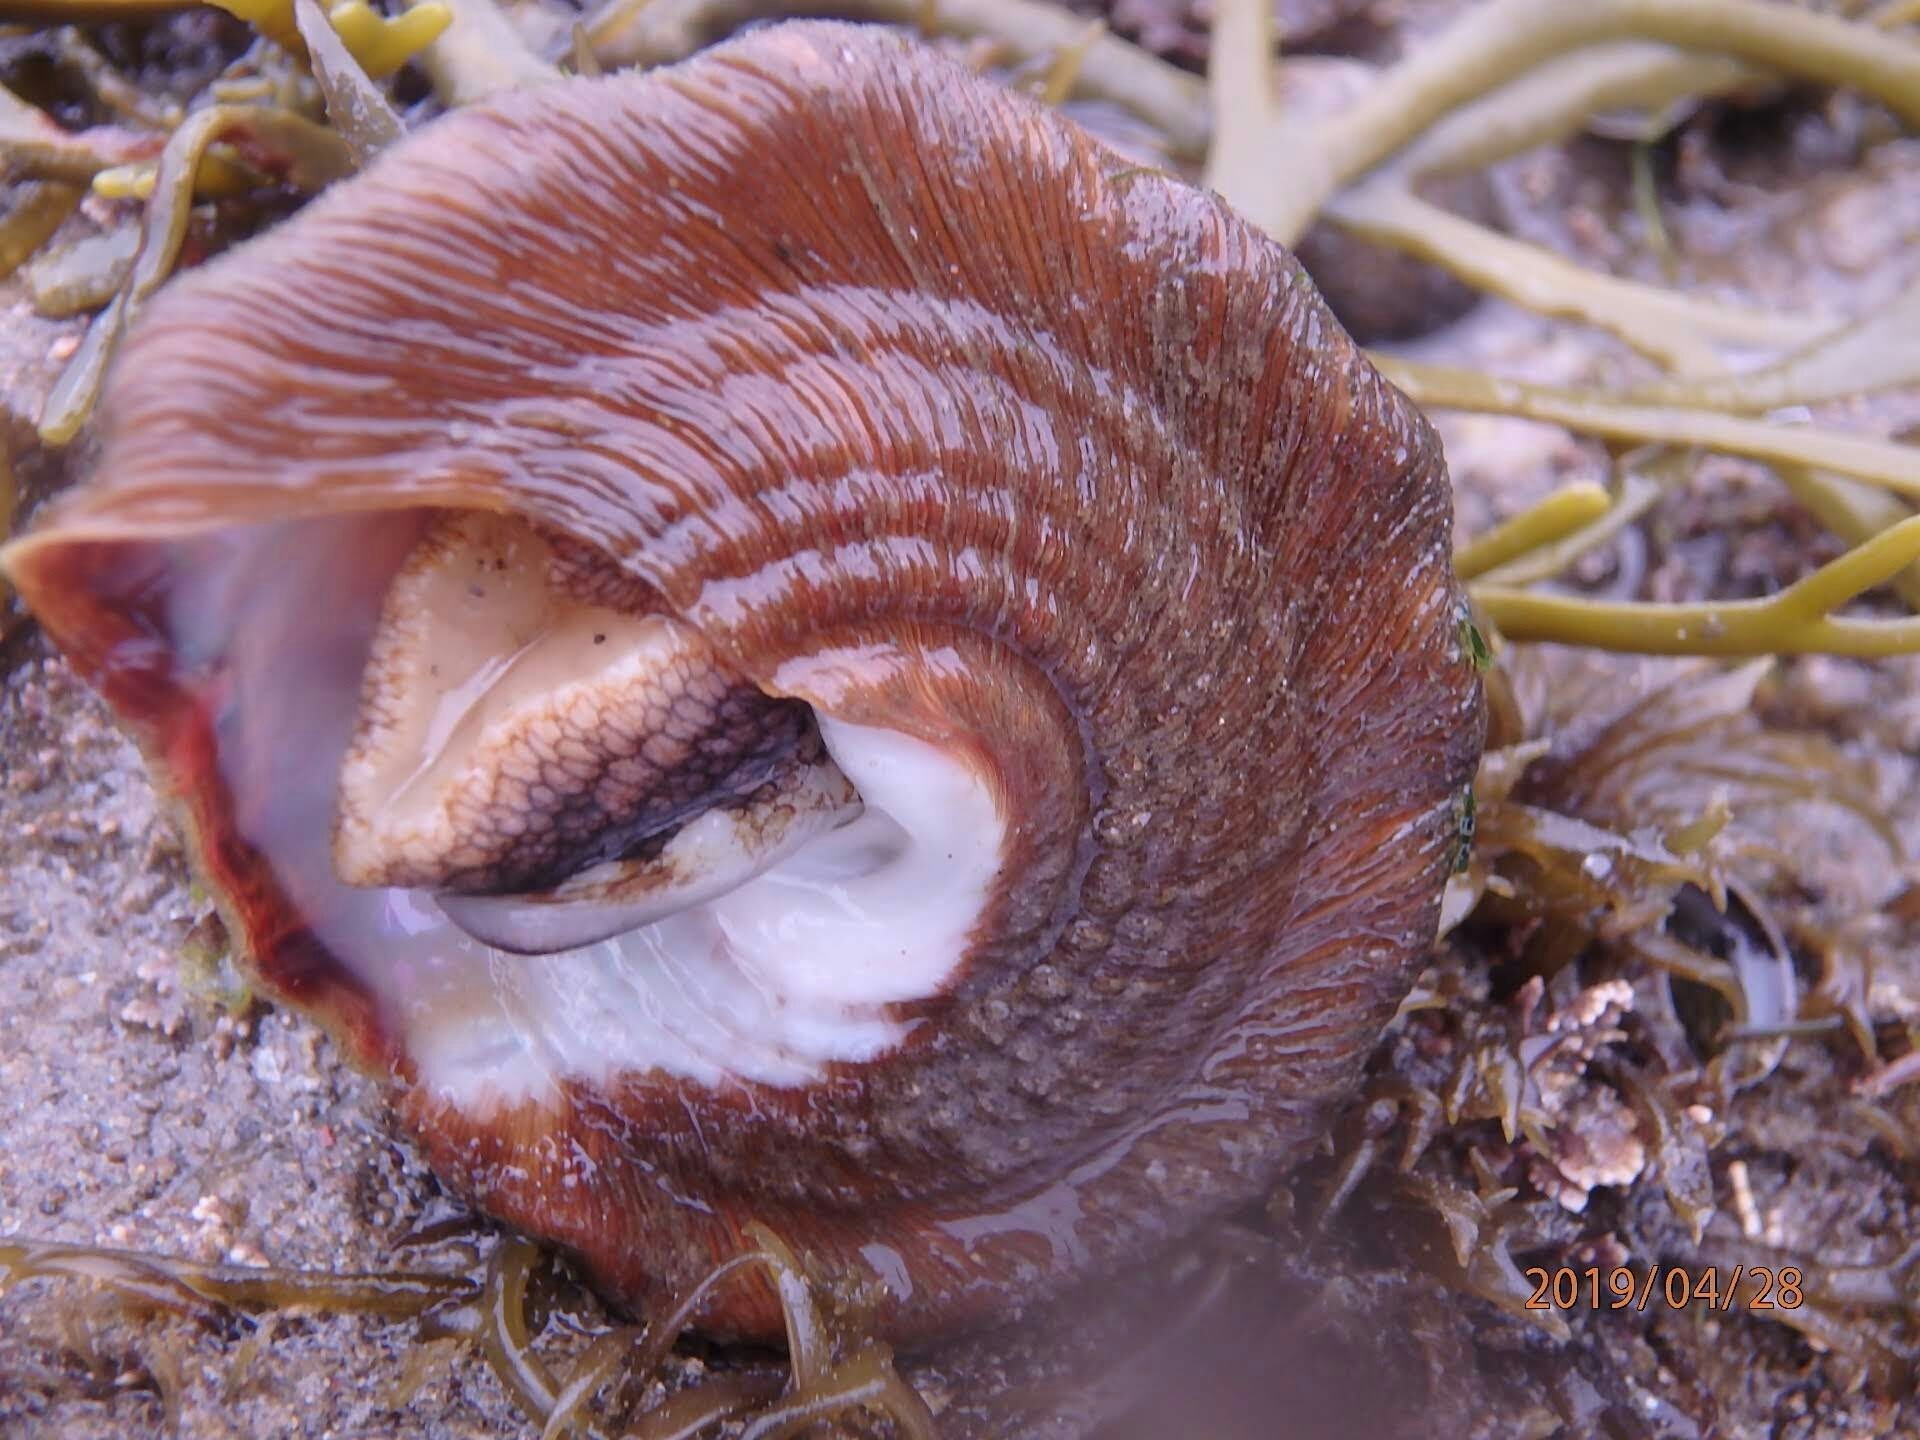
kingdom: Animalia
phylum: Mollusca
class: Gastropoda
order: Trochida
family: Turbinidae
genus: Megastraea
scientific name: Megastraea undosa
